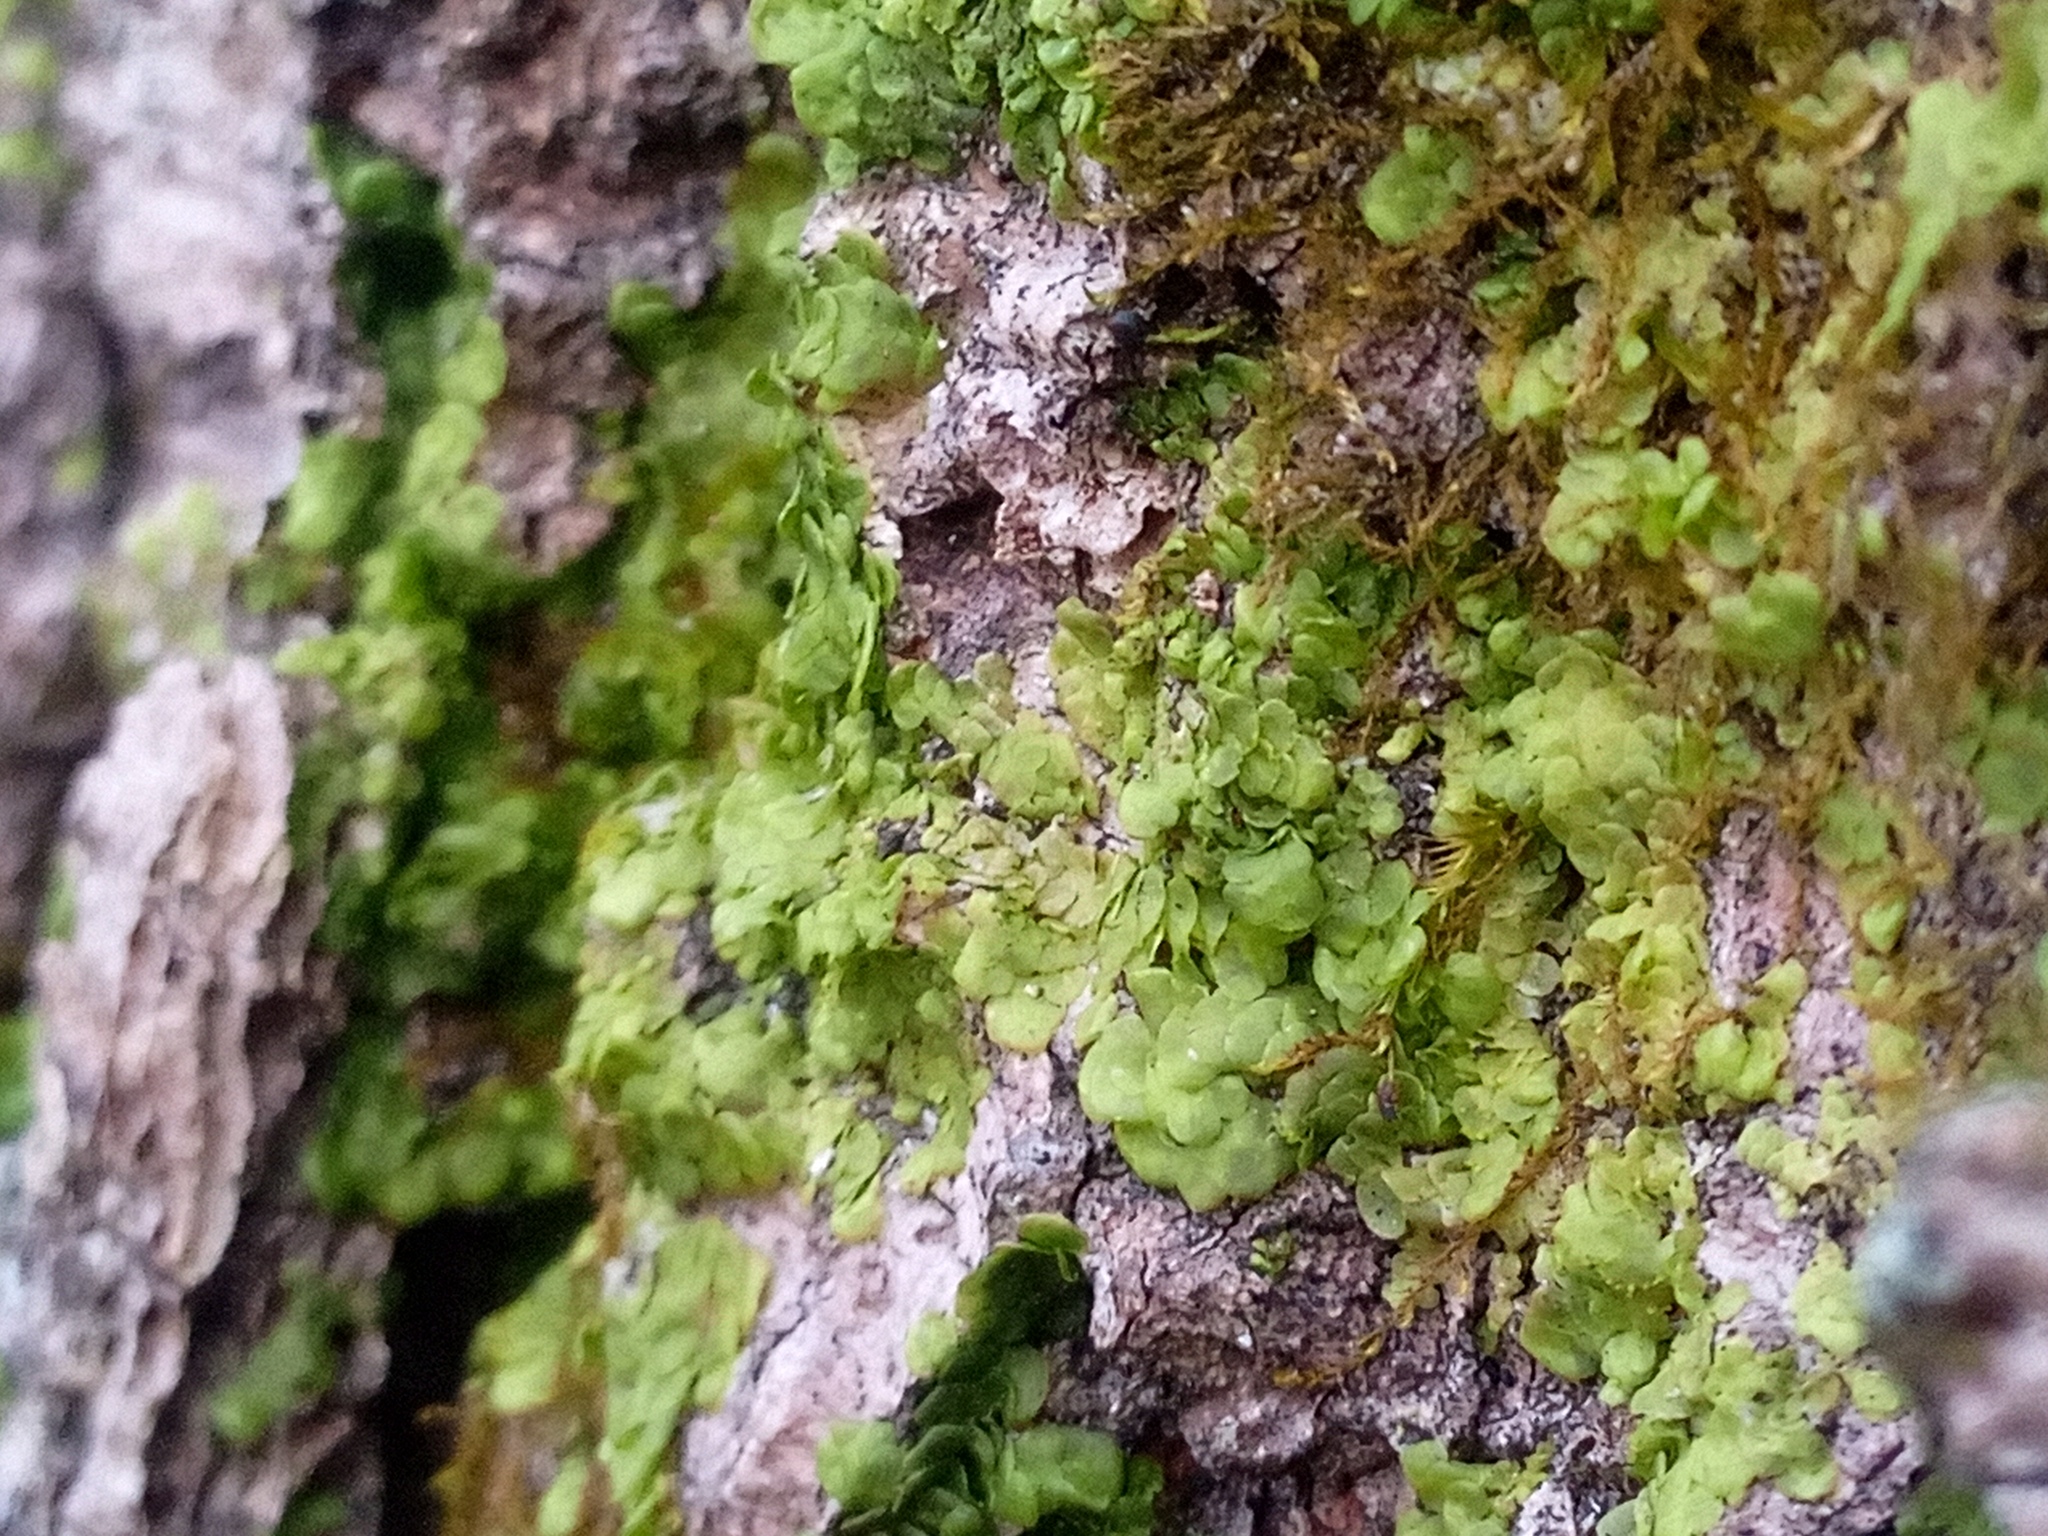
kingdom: Plantae
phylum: Marchantiophyta
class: Jungermanniopsida
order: Porellales
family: Radulaceae
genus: Radula
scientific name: Radula complanata
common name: Flat-leaved scalewort
